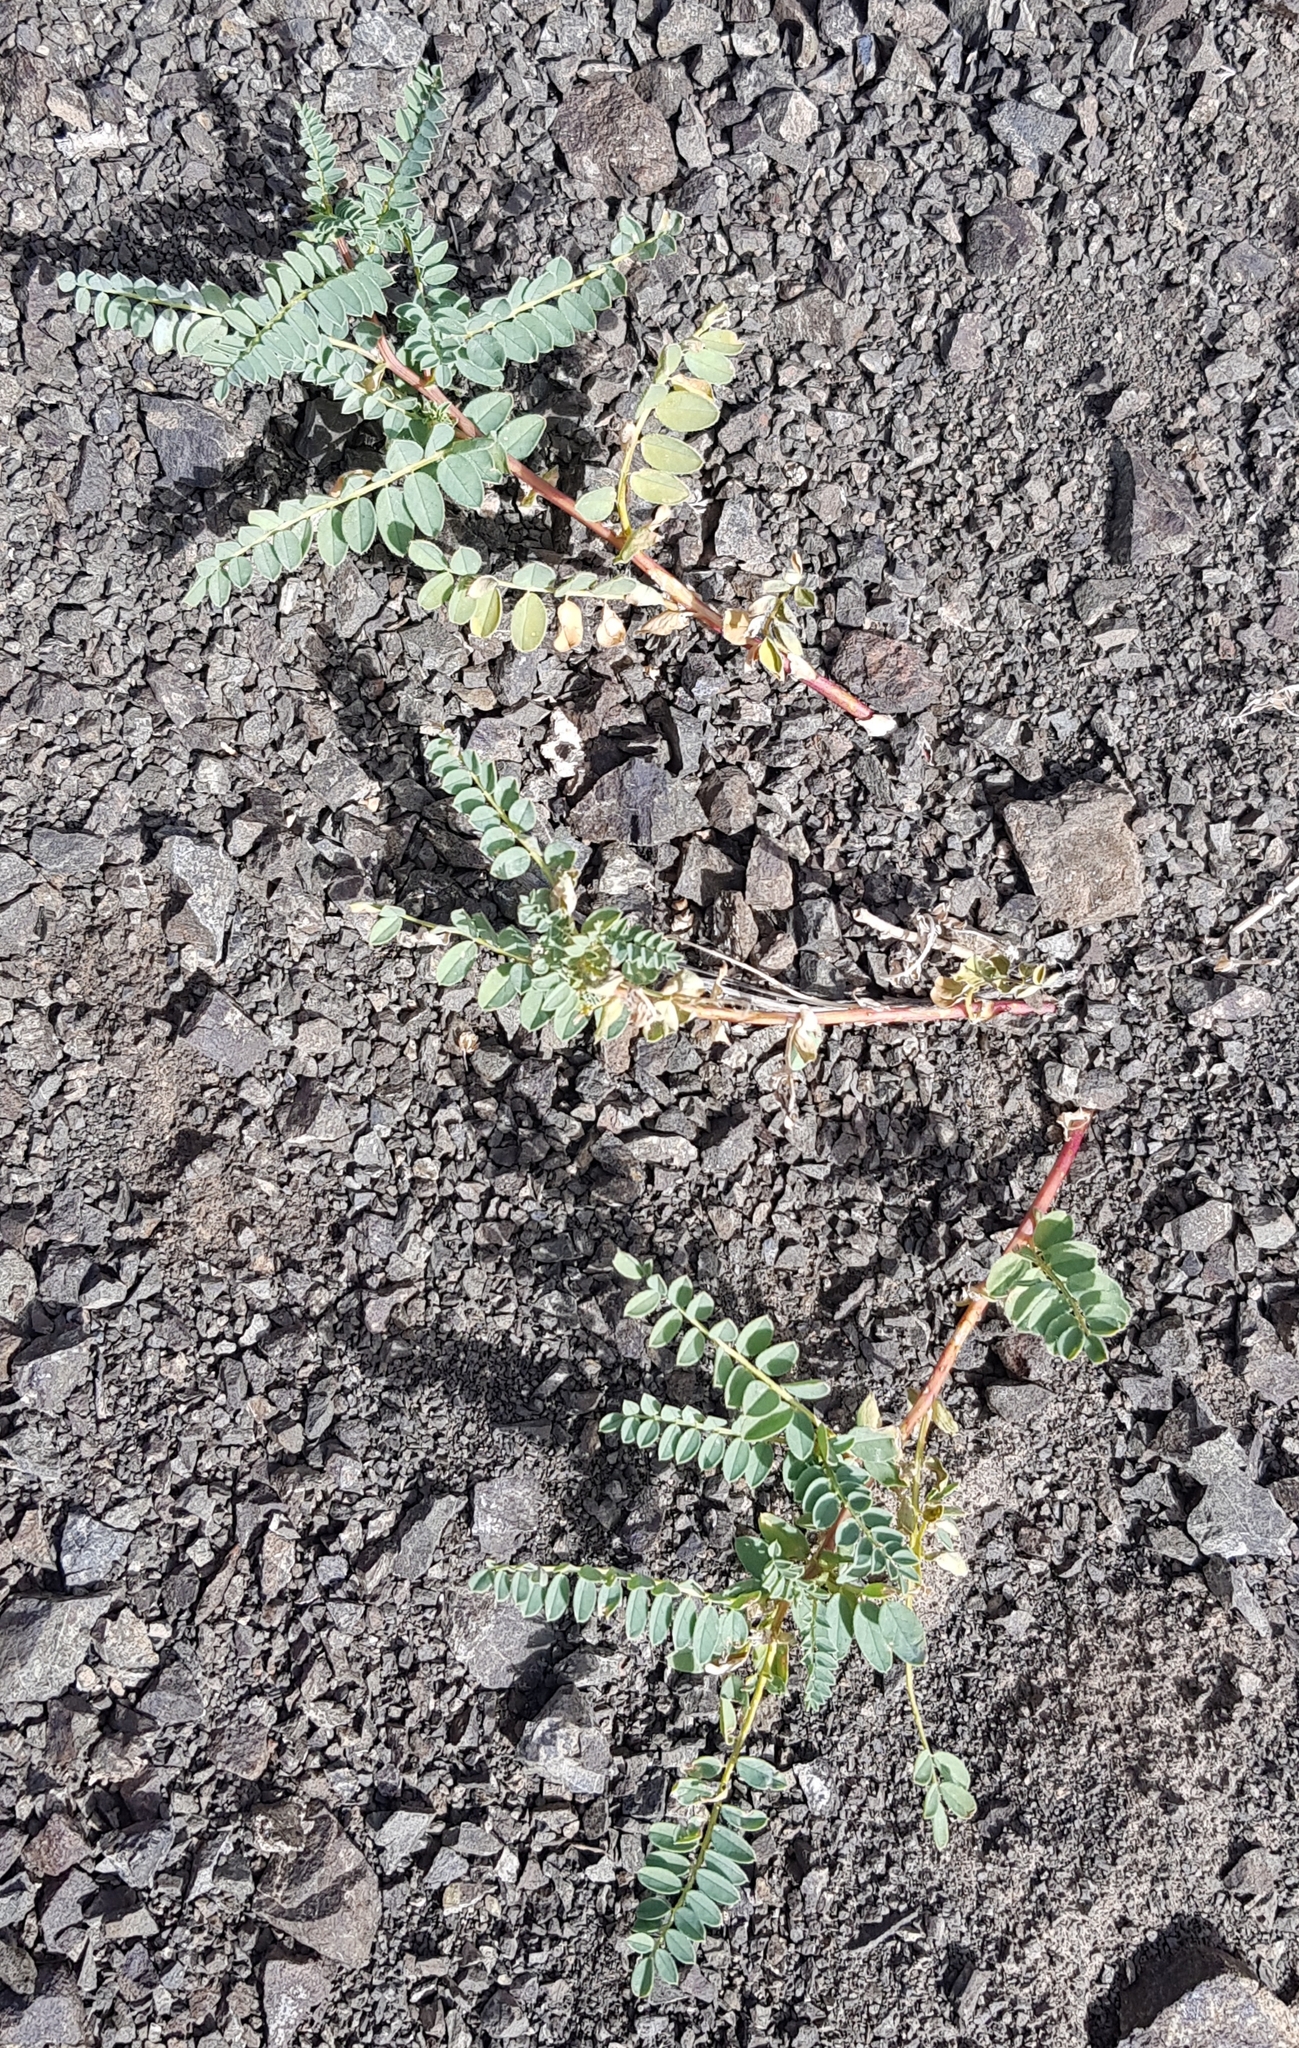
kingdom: Plantae
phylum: Tracheophyta
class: Magnoliopsida
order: Fabales
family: Fabaceae
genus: Astragalus
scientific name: Astragalus chinensis
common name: Chinese milkvetch
